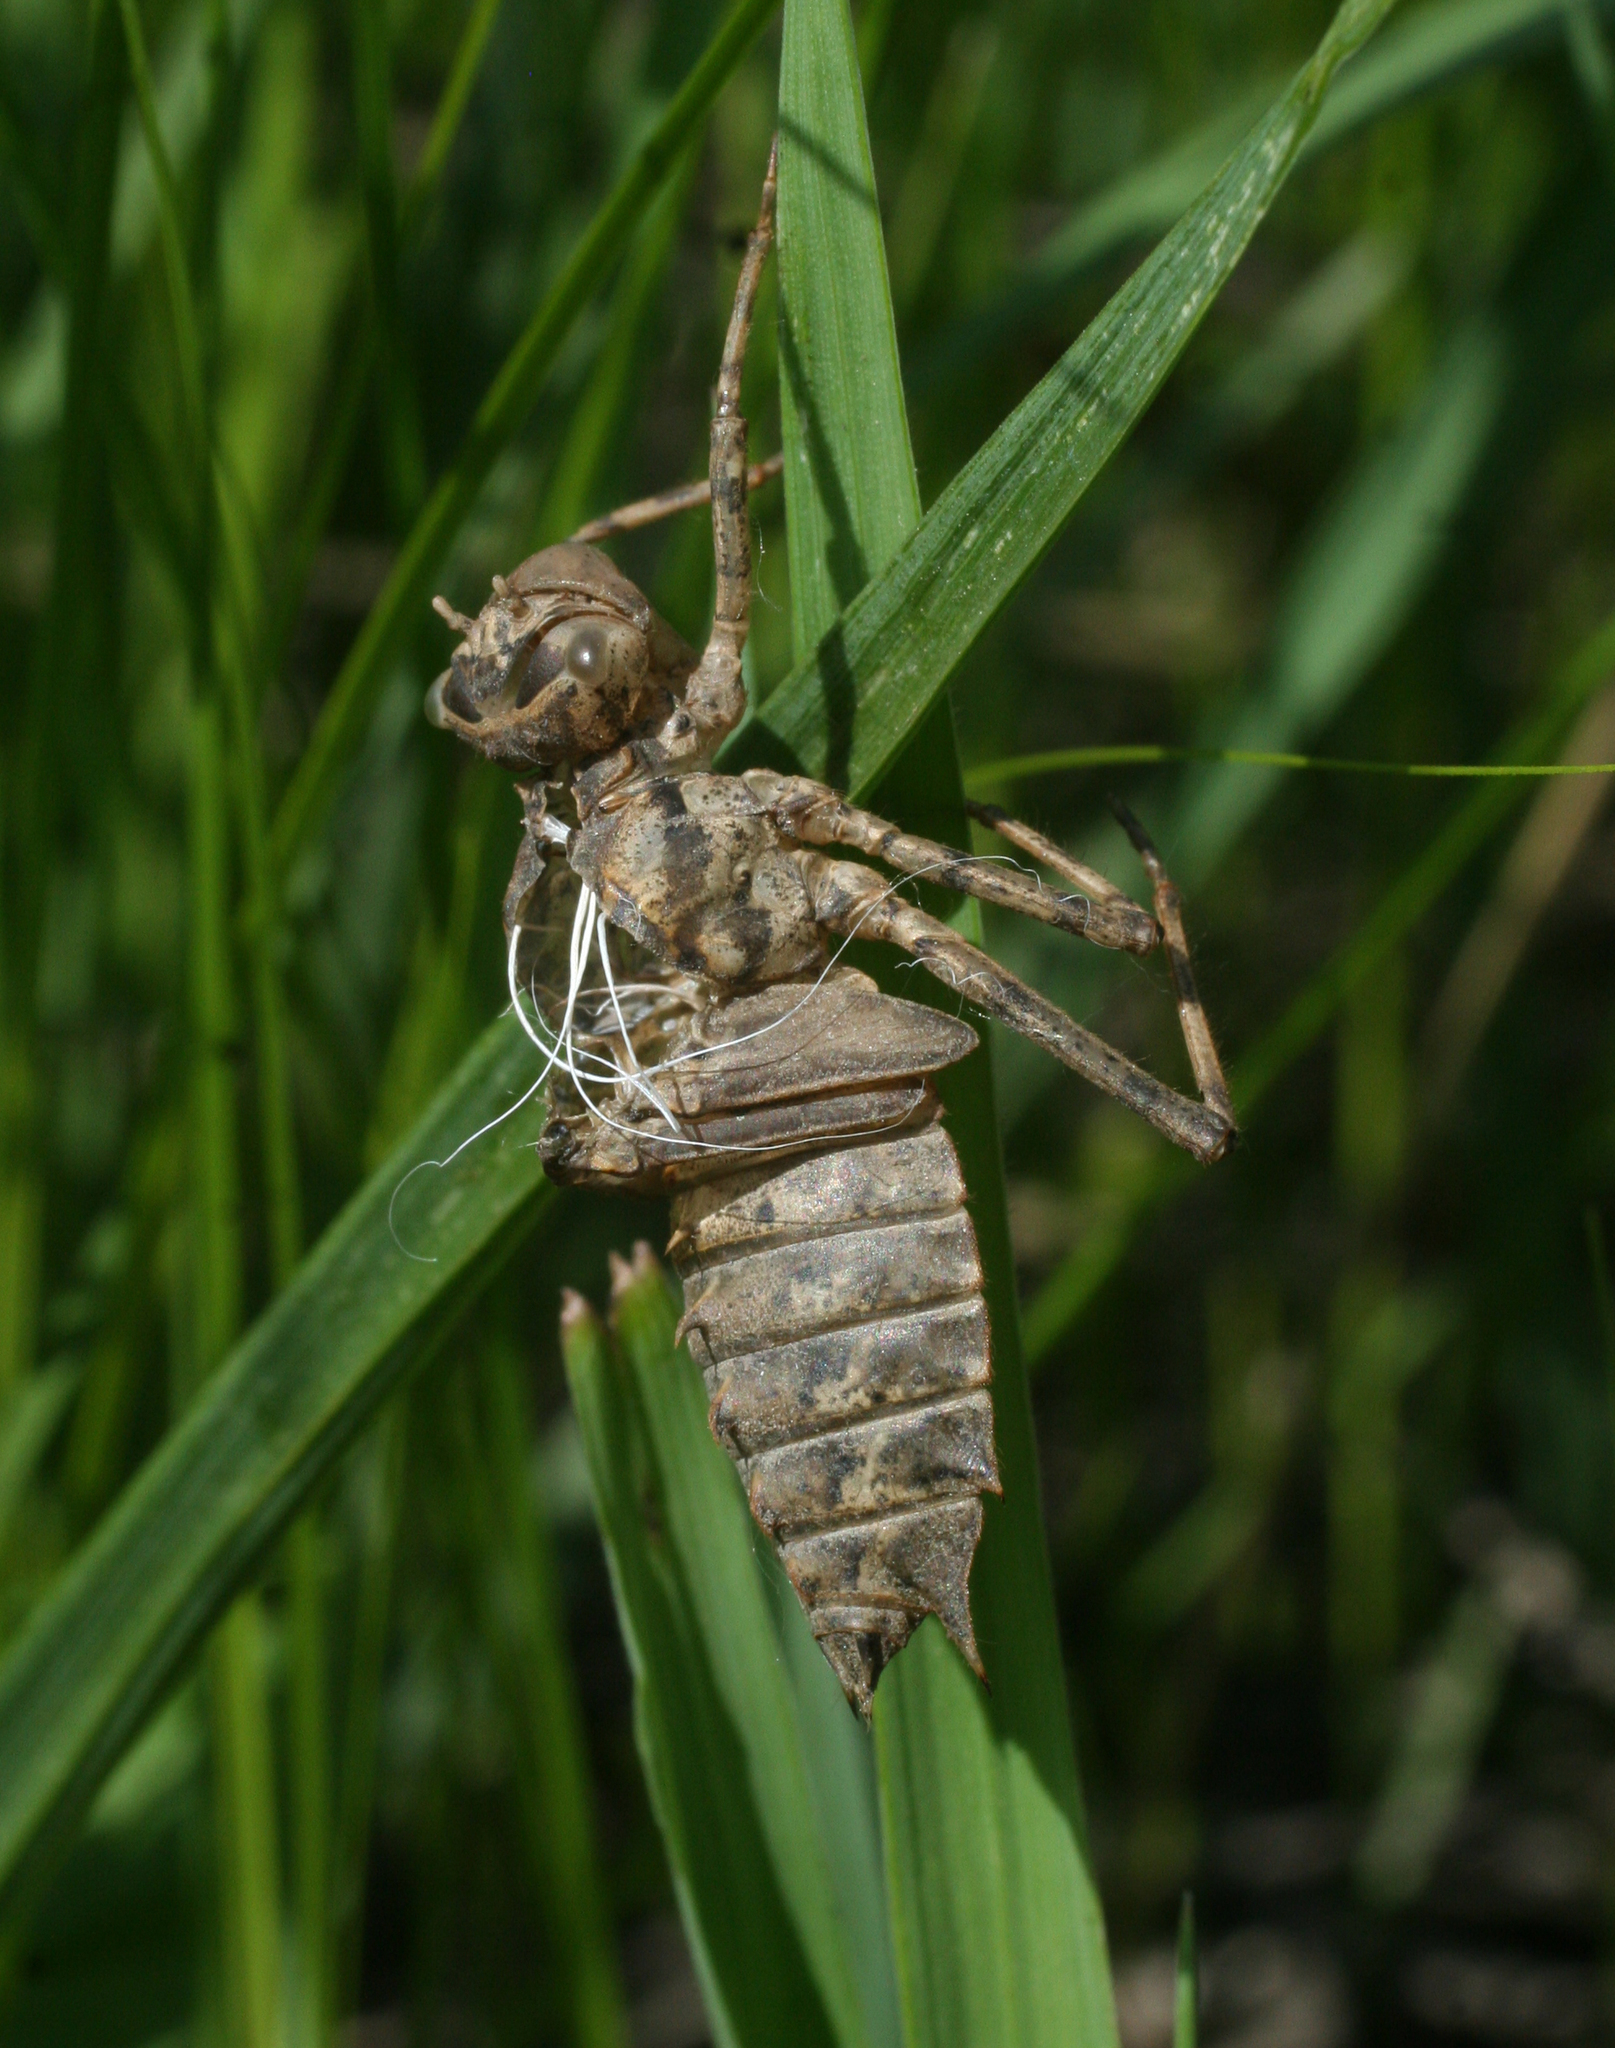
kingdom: Animalia
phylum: Arthropoda
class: Insecta
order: Odonata
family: Corduliidae
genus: Epitheca
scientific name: Epitheca bimaculata
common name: Eurasian baskettail
